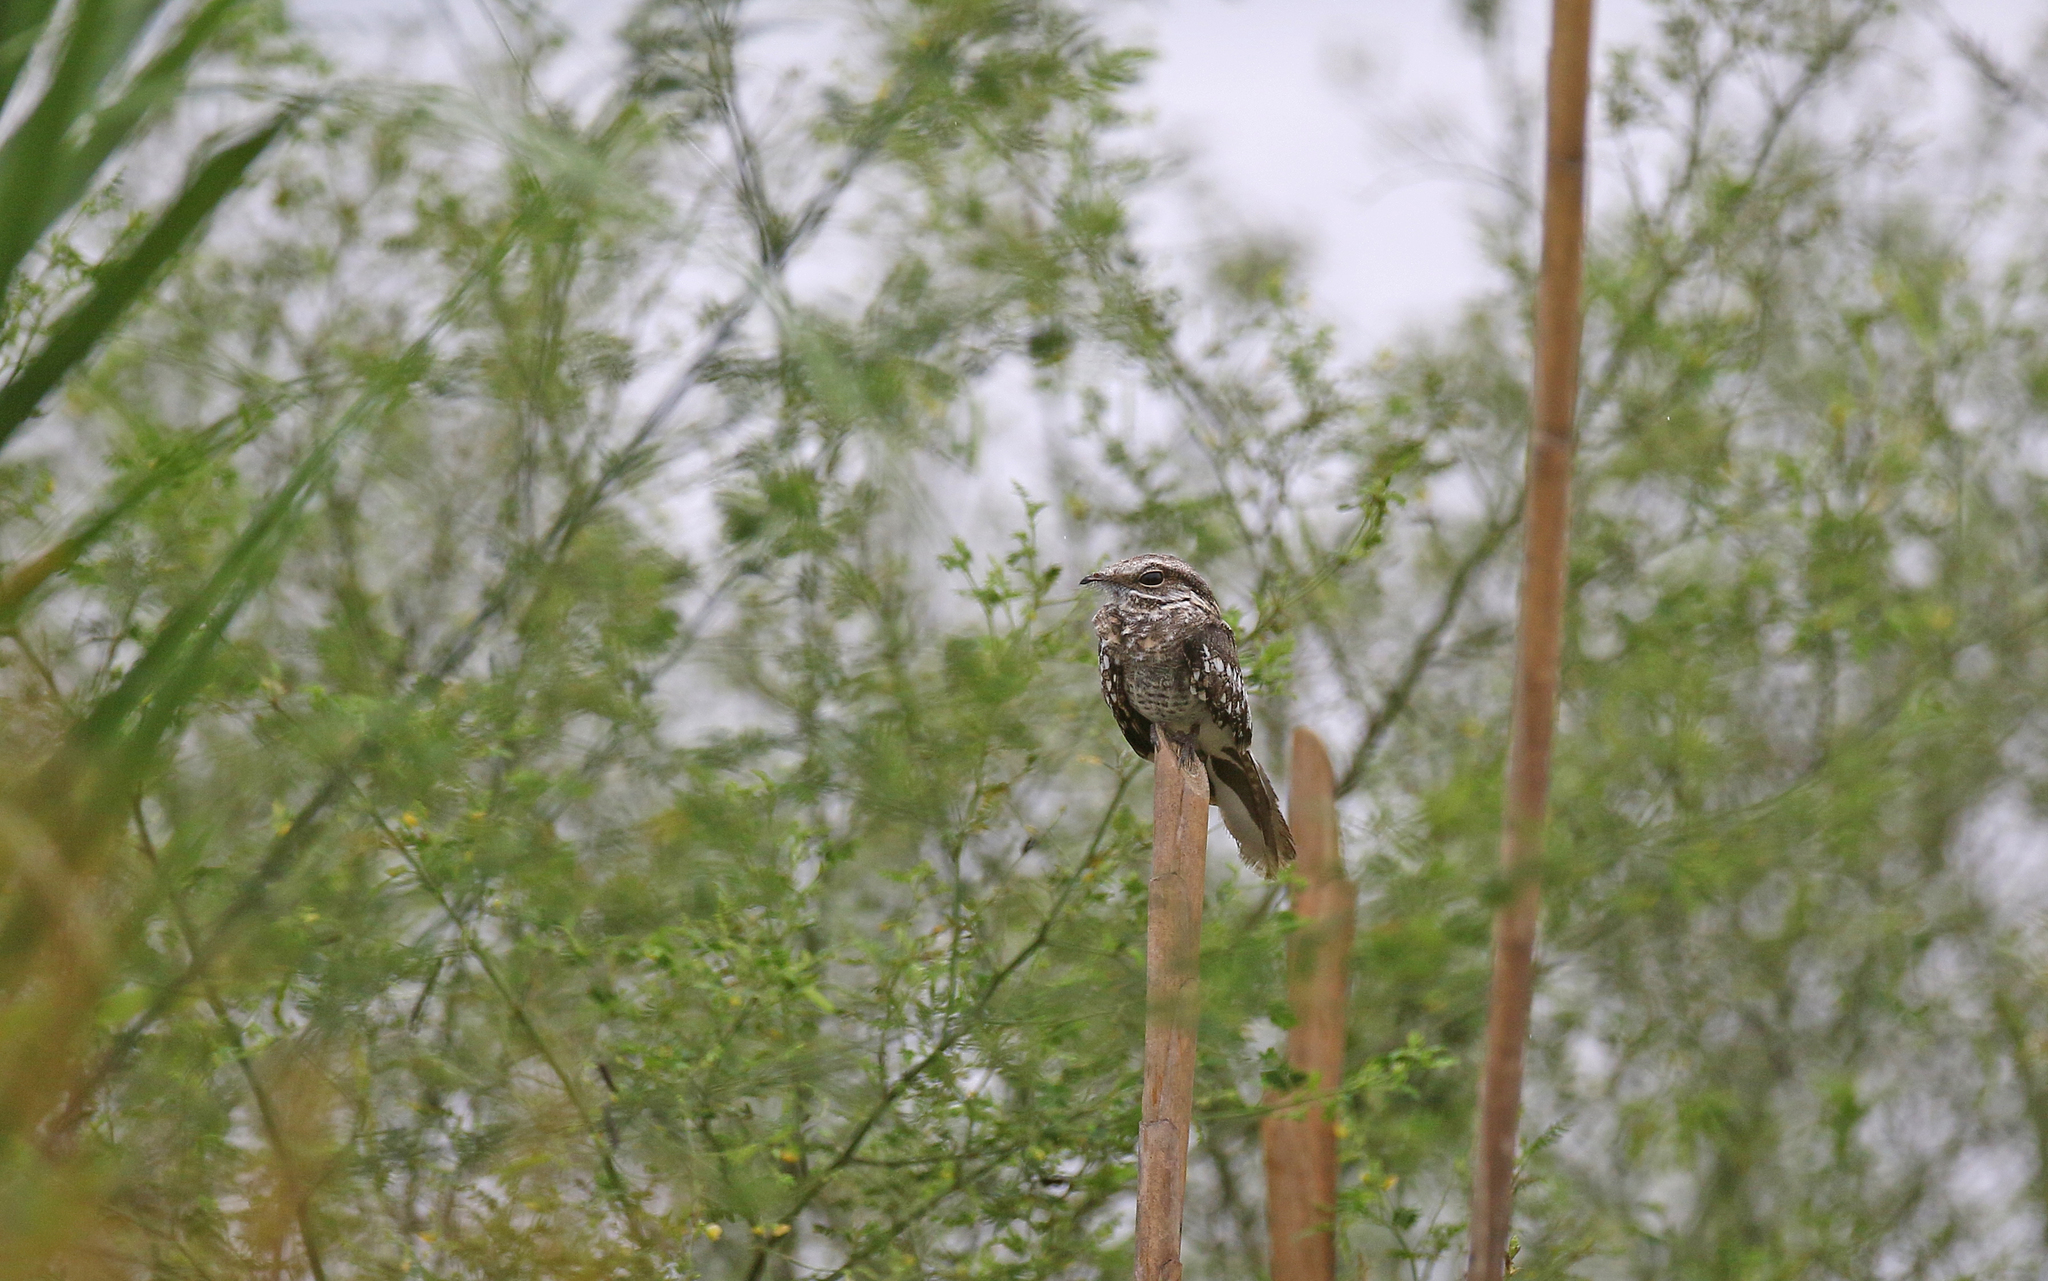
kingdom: Animalia
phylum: Chordata
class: Aves
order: Caprimulgiformes
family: Caprimulgidae
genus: Hydropsalis
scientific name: Hydropsalis climacocerca
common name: Ladder-tailed nightjar
